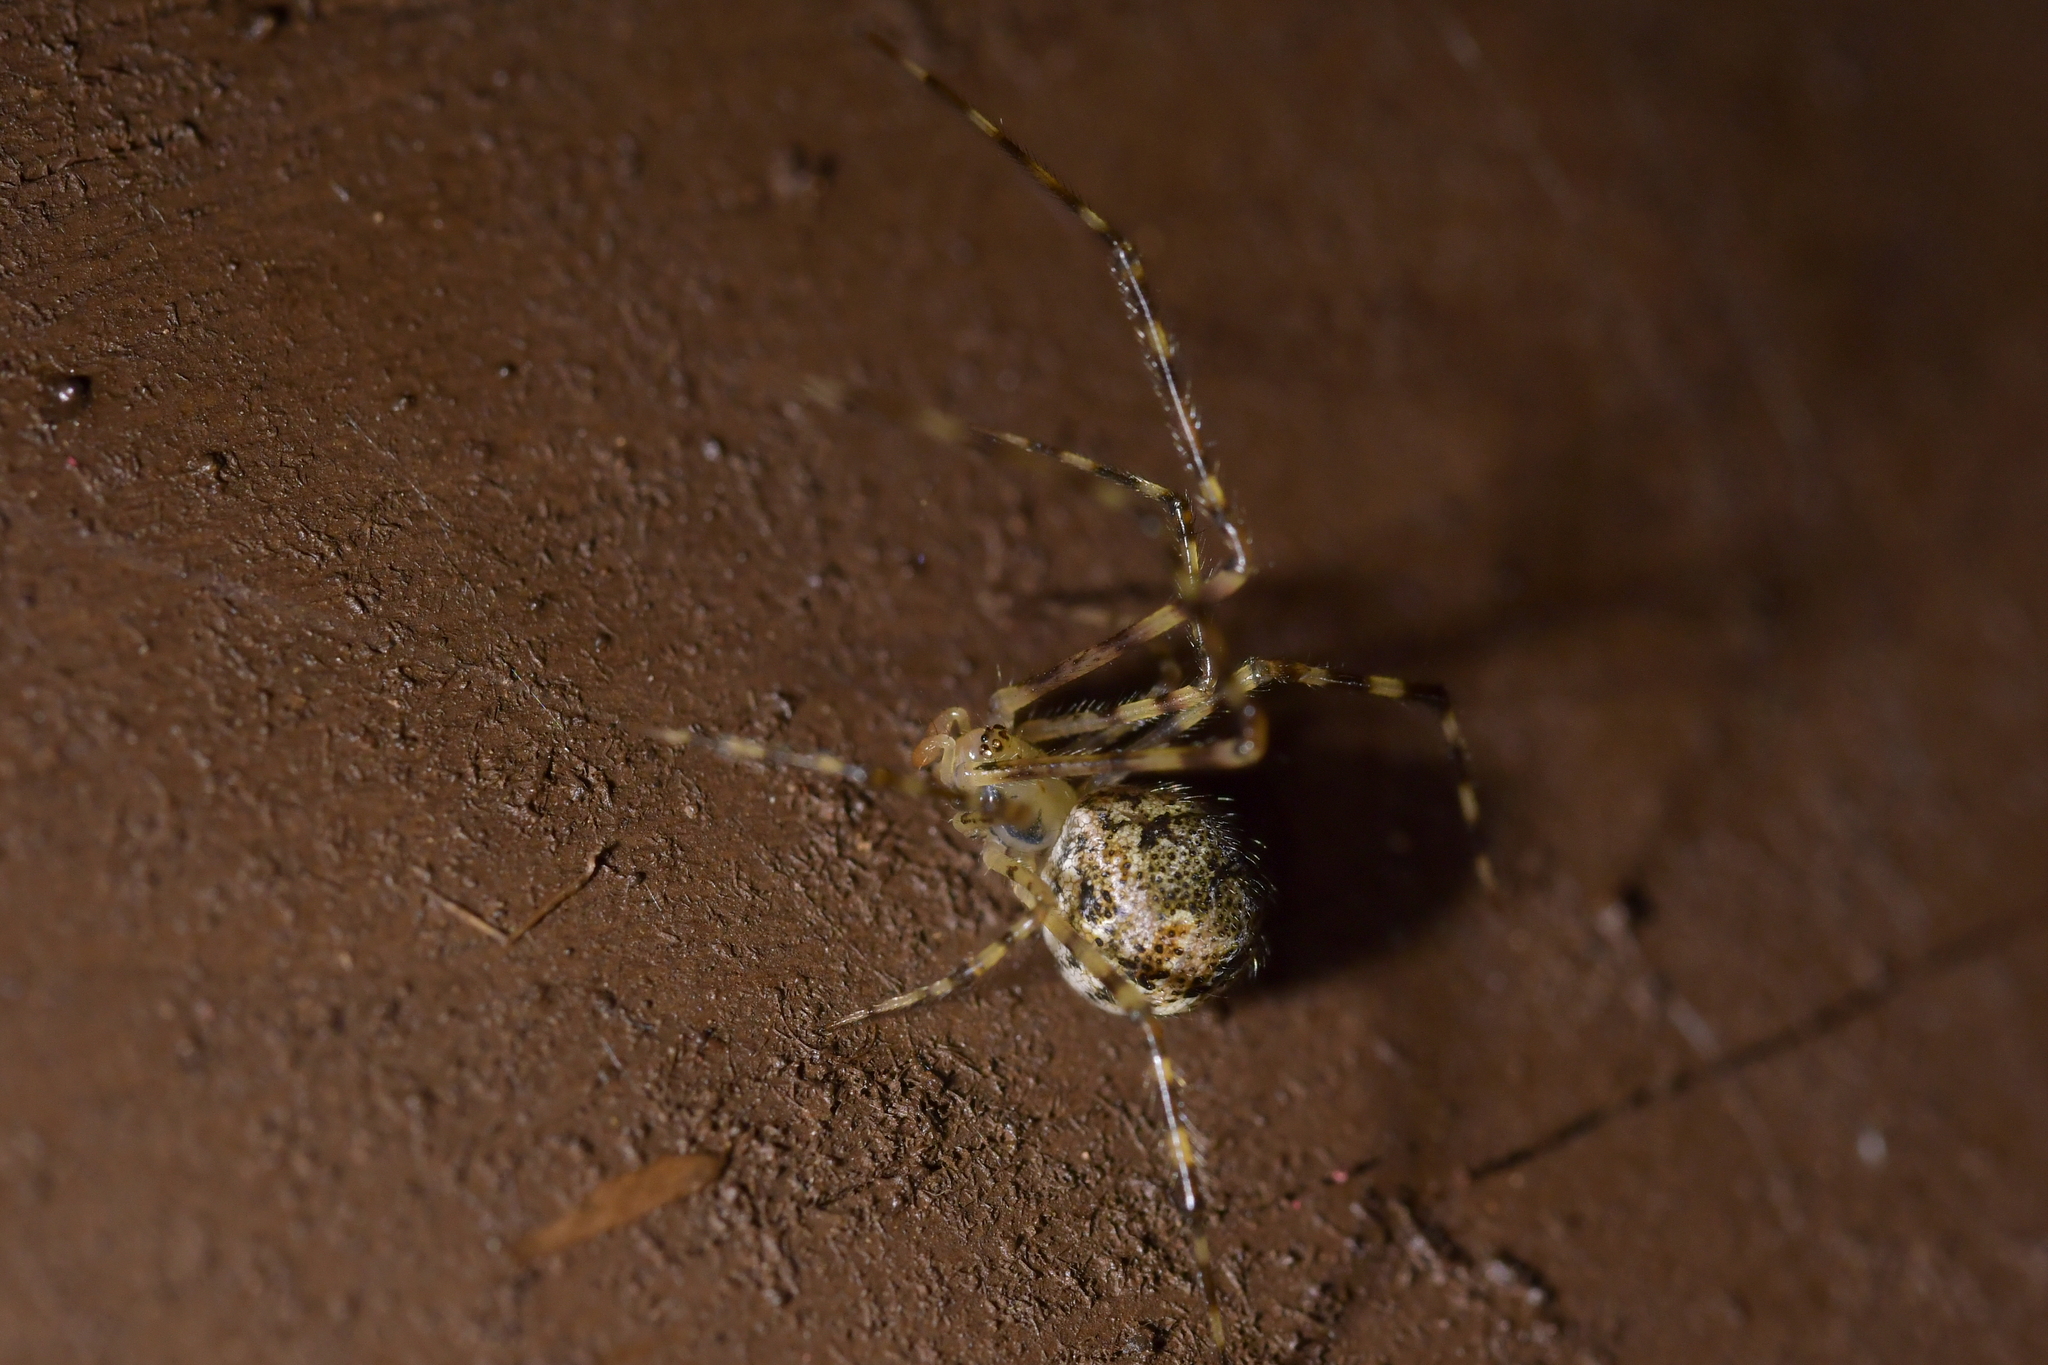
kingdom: Animalia
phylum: Arthropoda
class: Arachnida
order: Araneae
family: Theridiidae
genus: Cryptachaea
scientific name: Cryptachaea gigantipes
